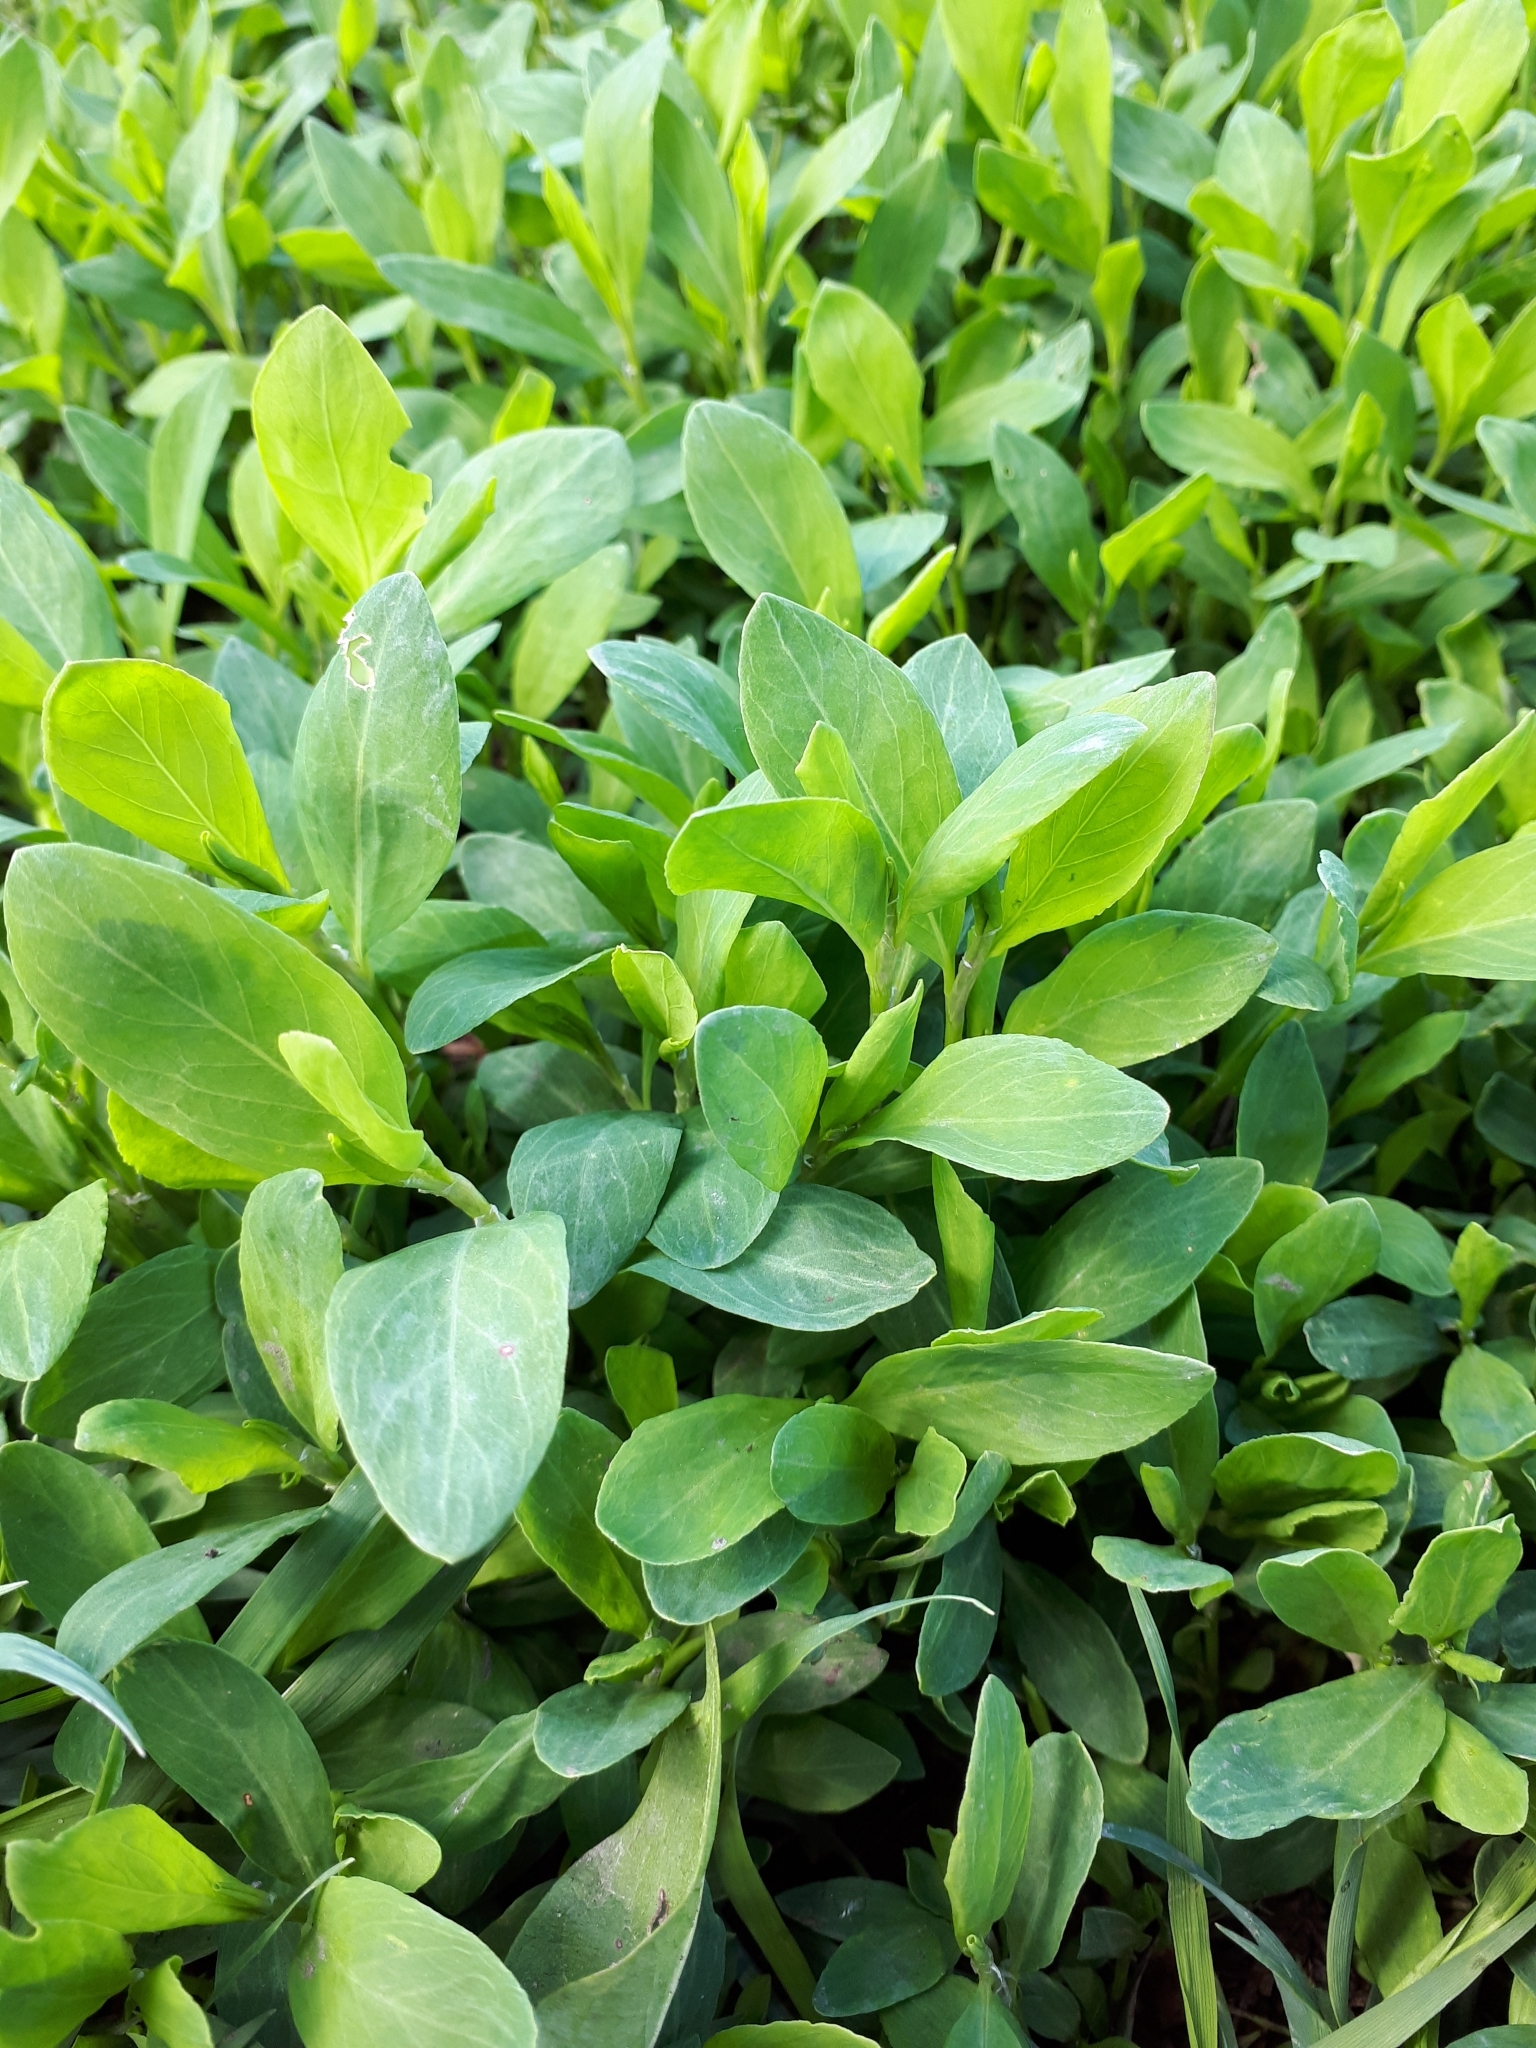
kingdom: Plantae
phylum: Tracheophyta
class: Magnoliopsida
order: Caryophyllales
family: Polygonaceae
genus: Polygonum
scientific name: Polygonum
